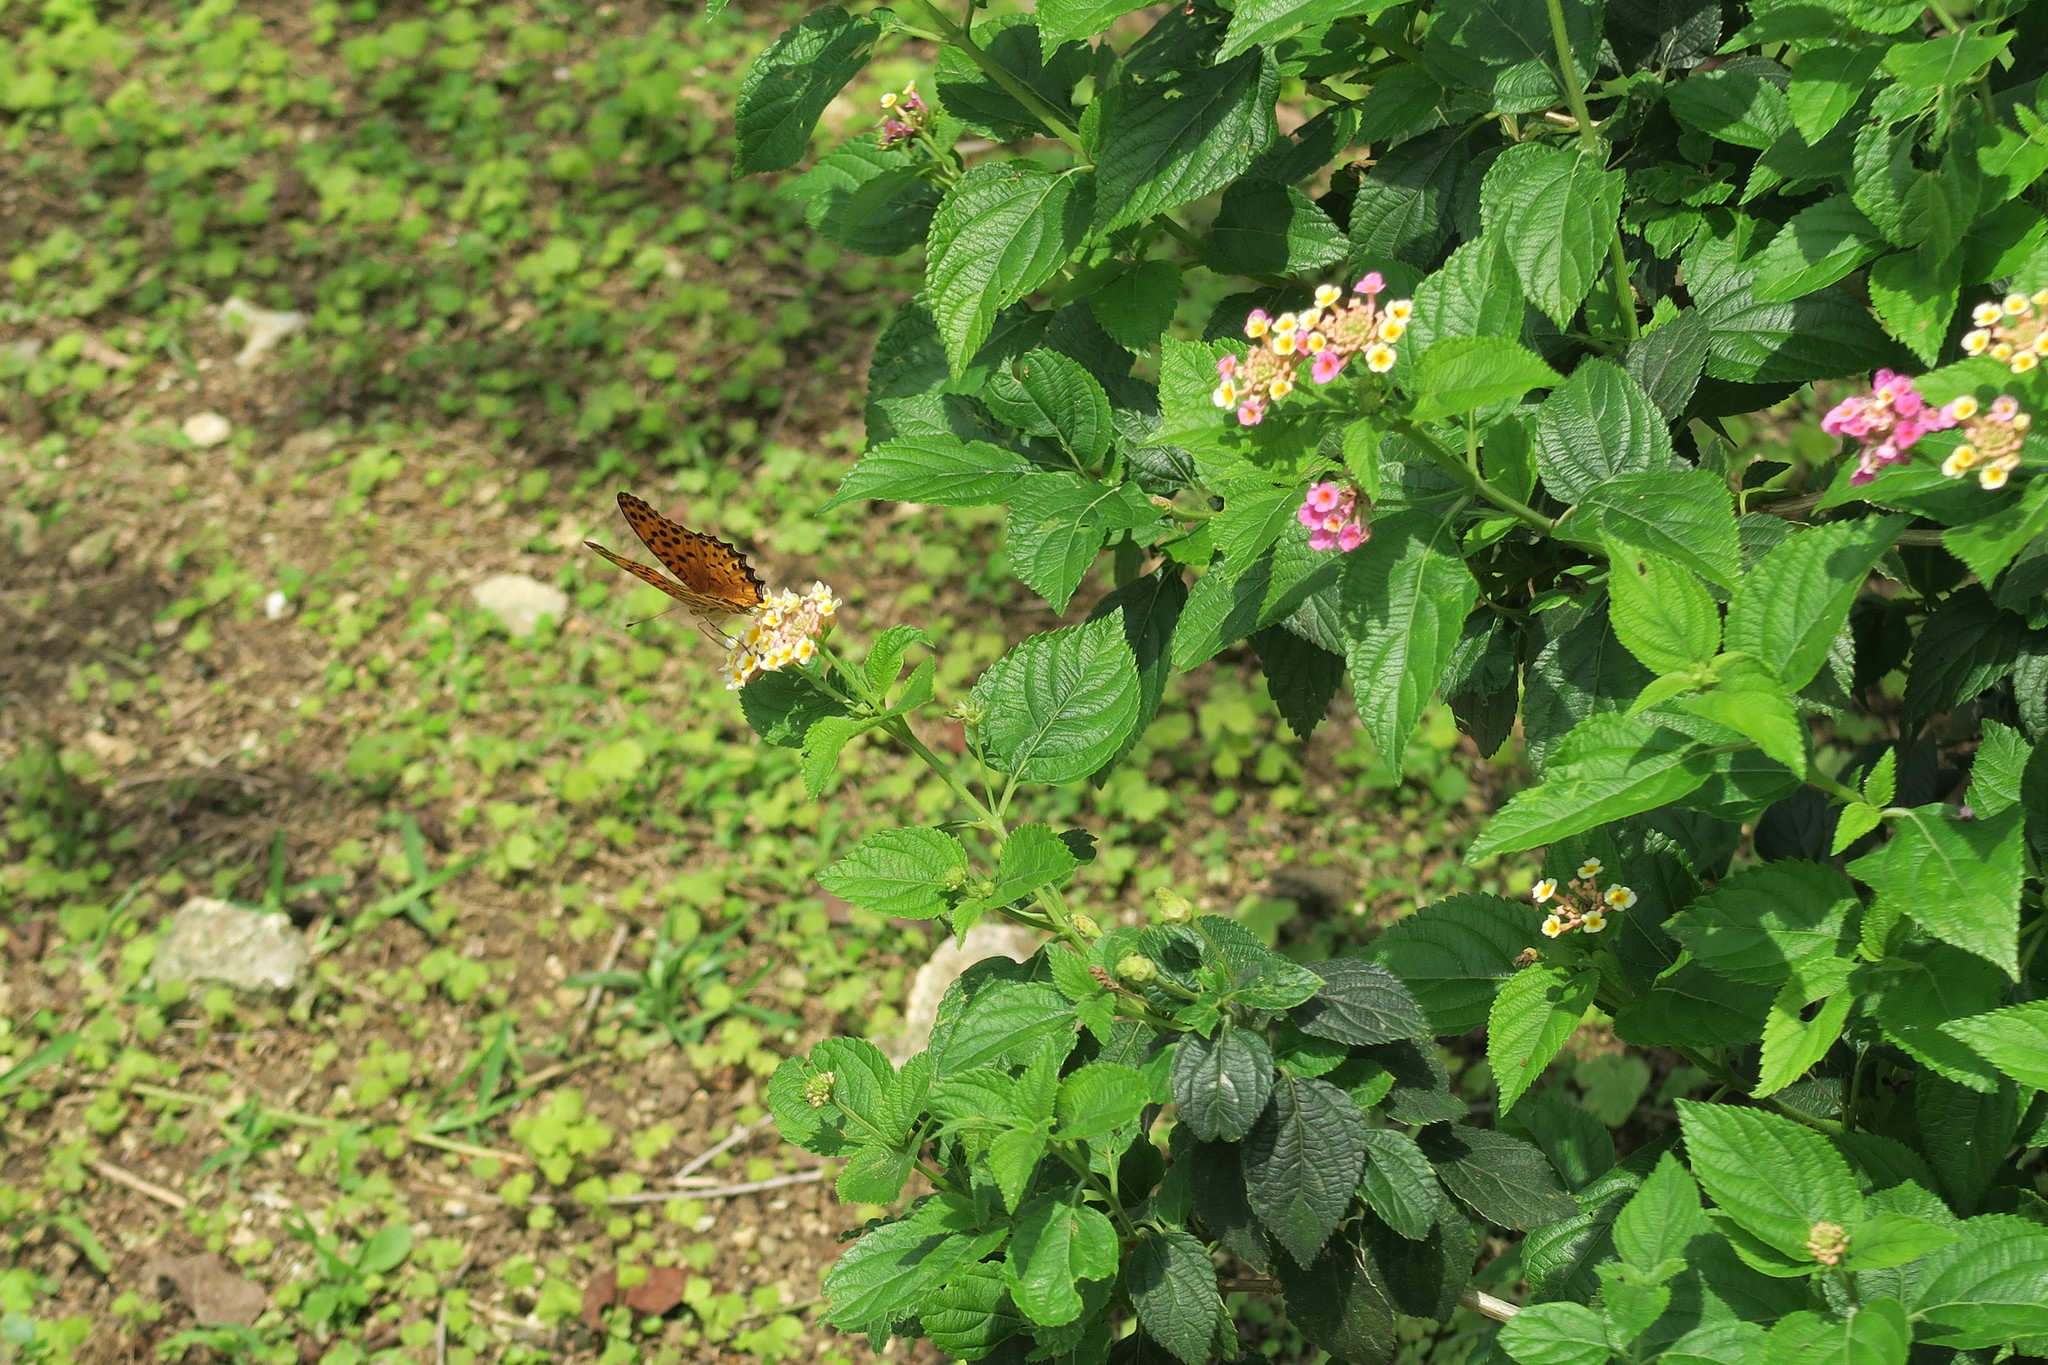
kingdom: Animalia
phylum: Arthropoda
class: Insecta
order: Lepidoptera
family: Nymphalidae
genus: Argynnis
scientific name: Argynnis hyperbius
